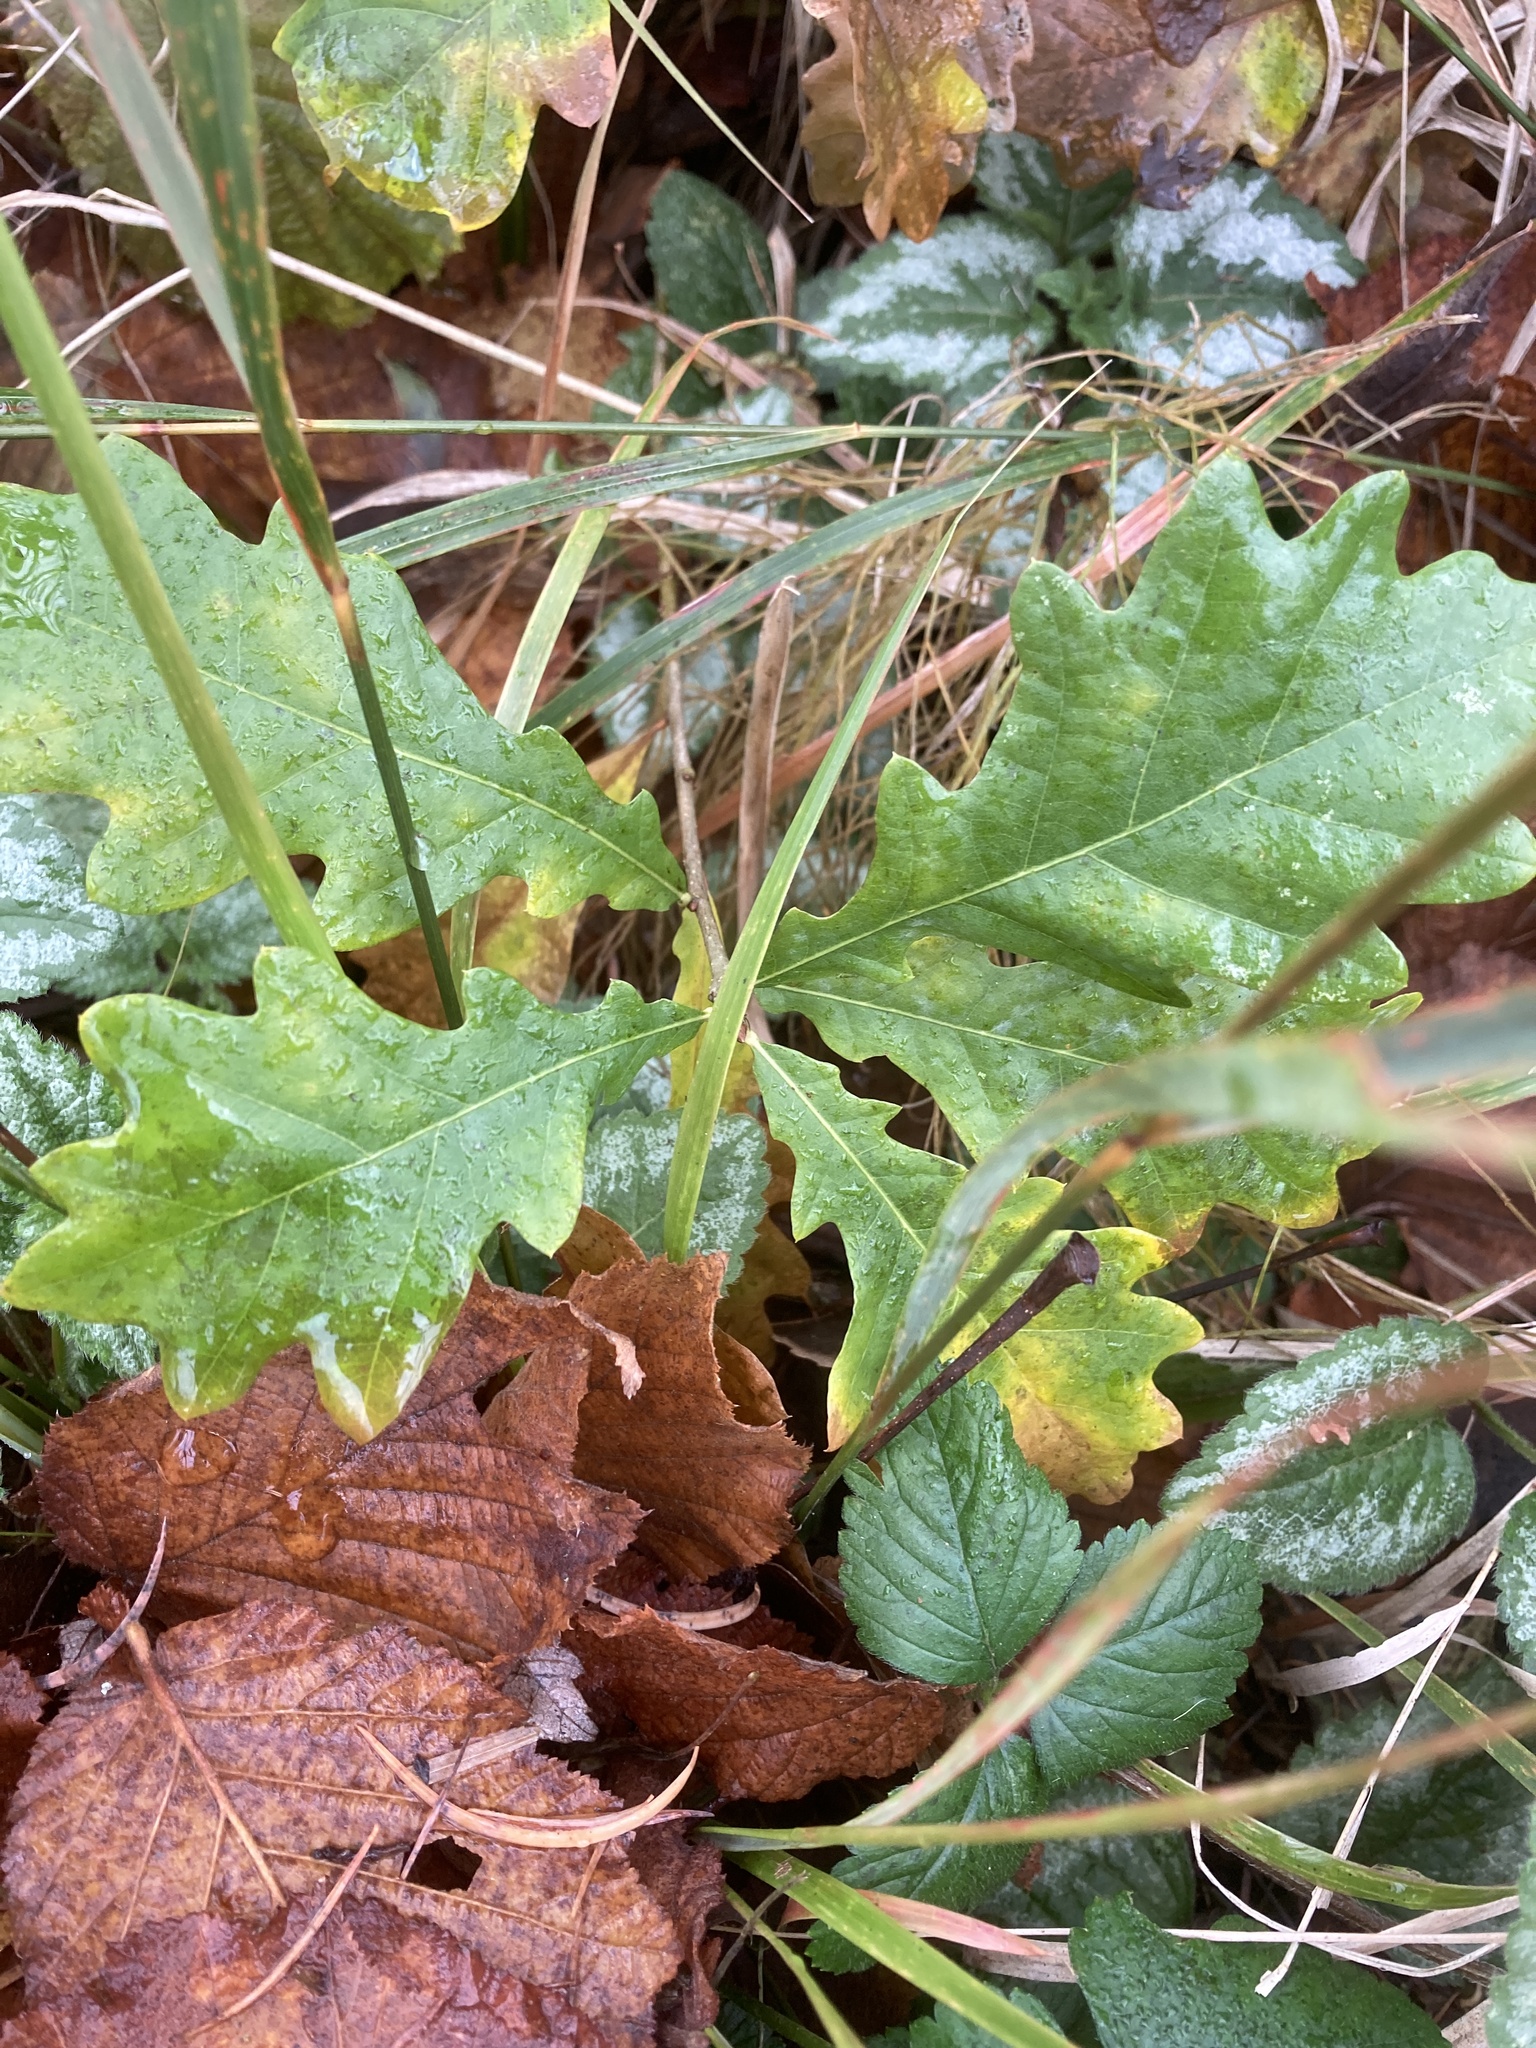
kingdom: Plantae
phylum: Tracheophyta
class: Magnoliopsida
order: Fagales
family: Fagaceae
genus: Quercus
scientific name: Quercus robur
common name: Pedunculate oak
